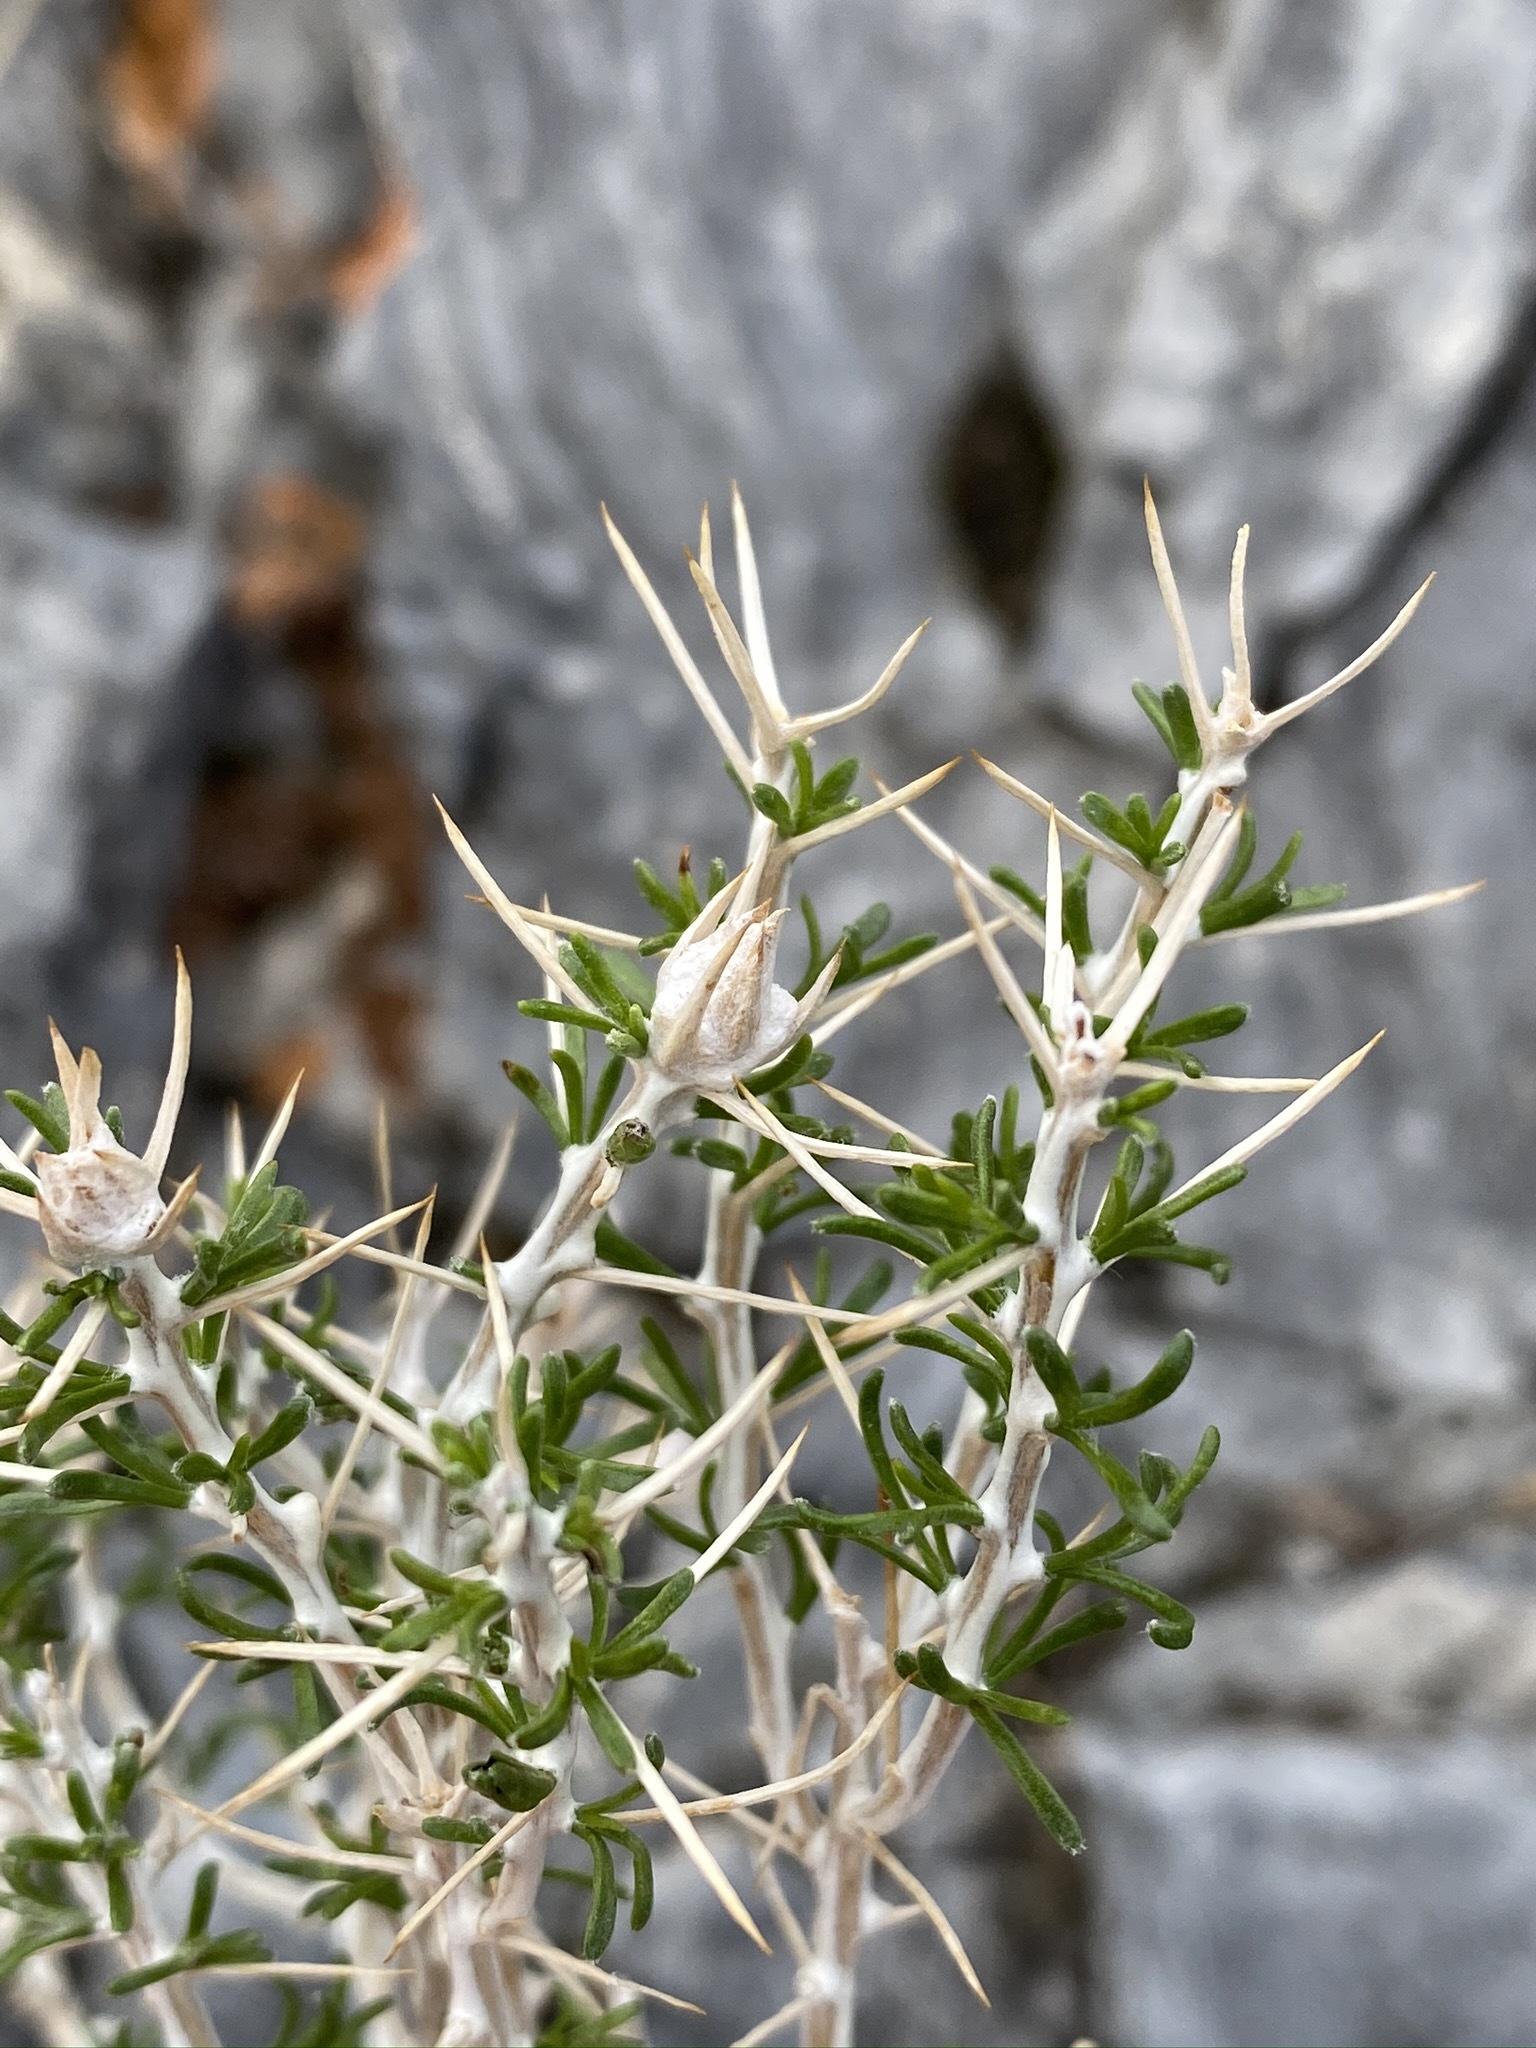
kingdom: Plantae
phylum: Tracheophyta
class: Magnoliopsida
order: Asterales
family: Asteraceae
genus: Tetradymia
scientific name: Tetradymia argyraea
